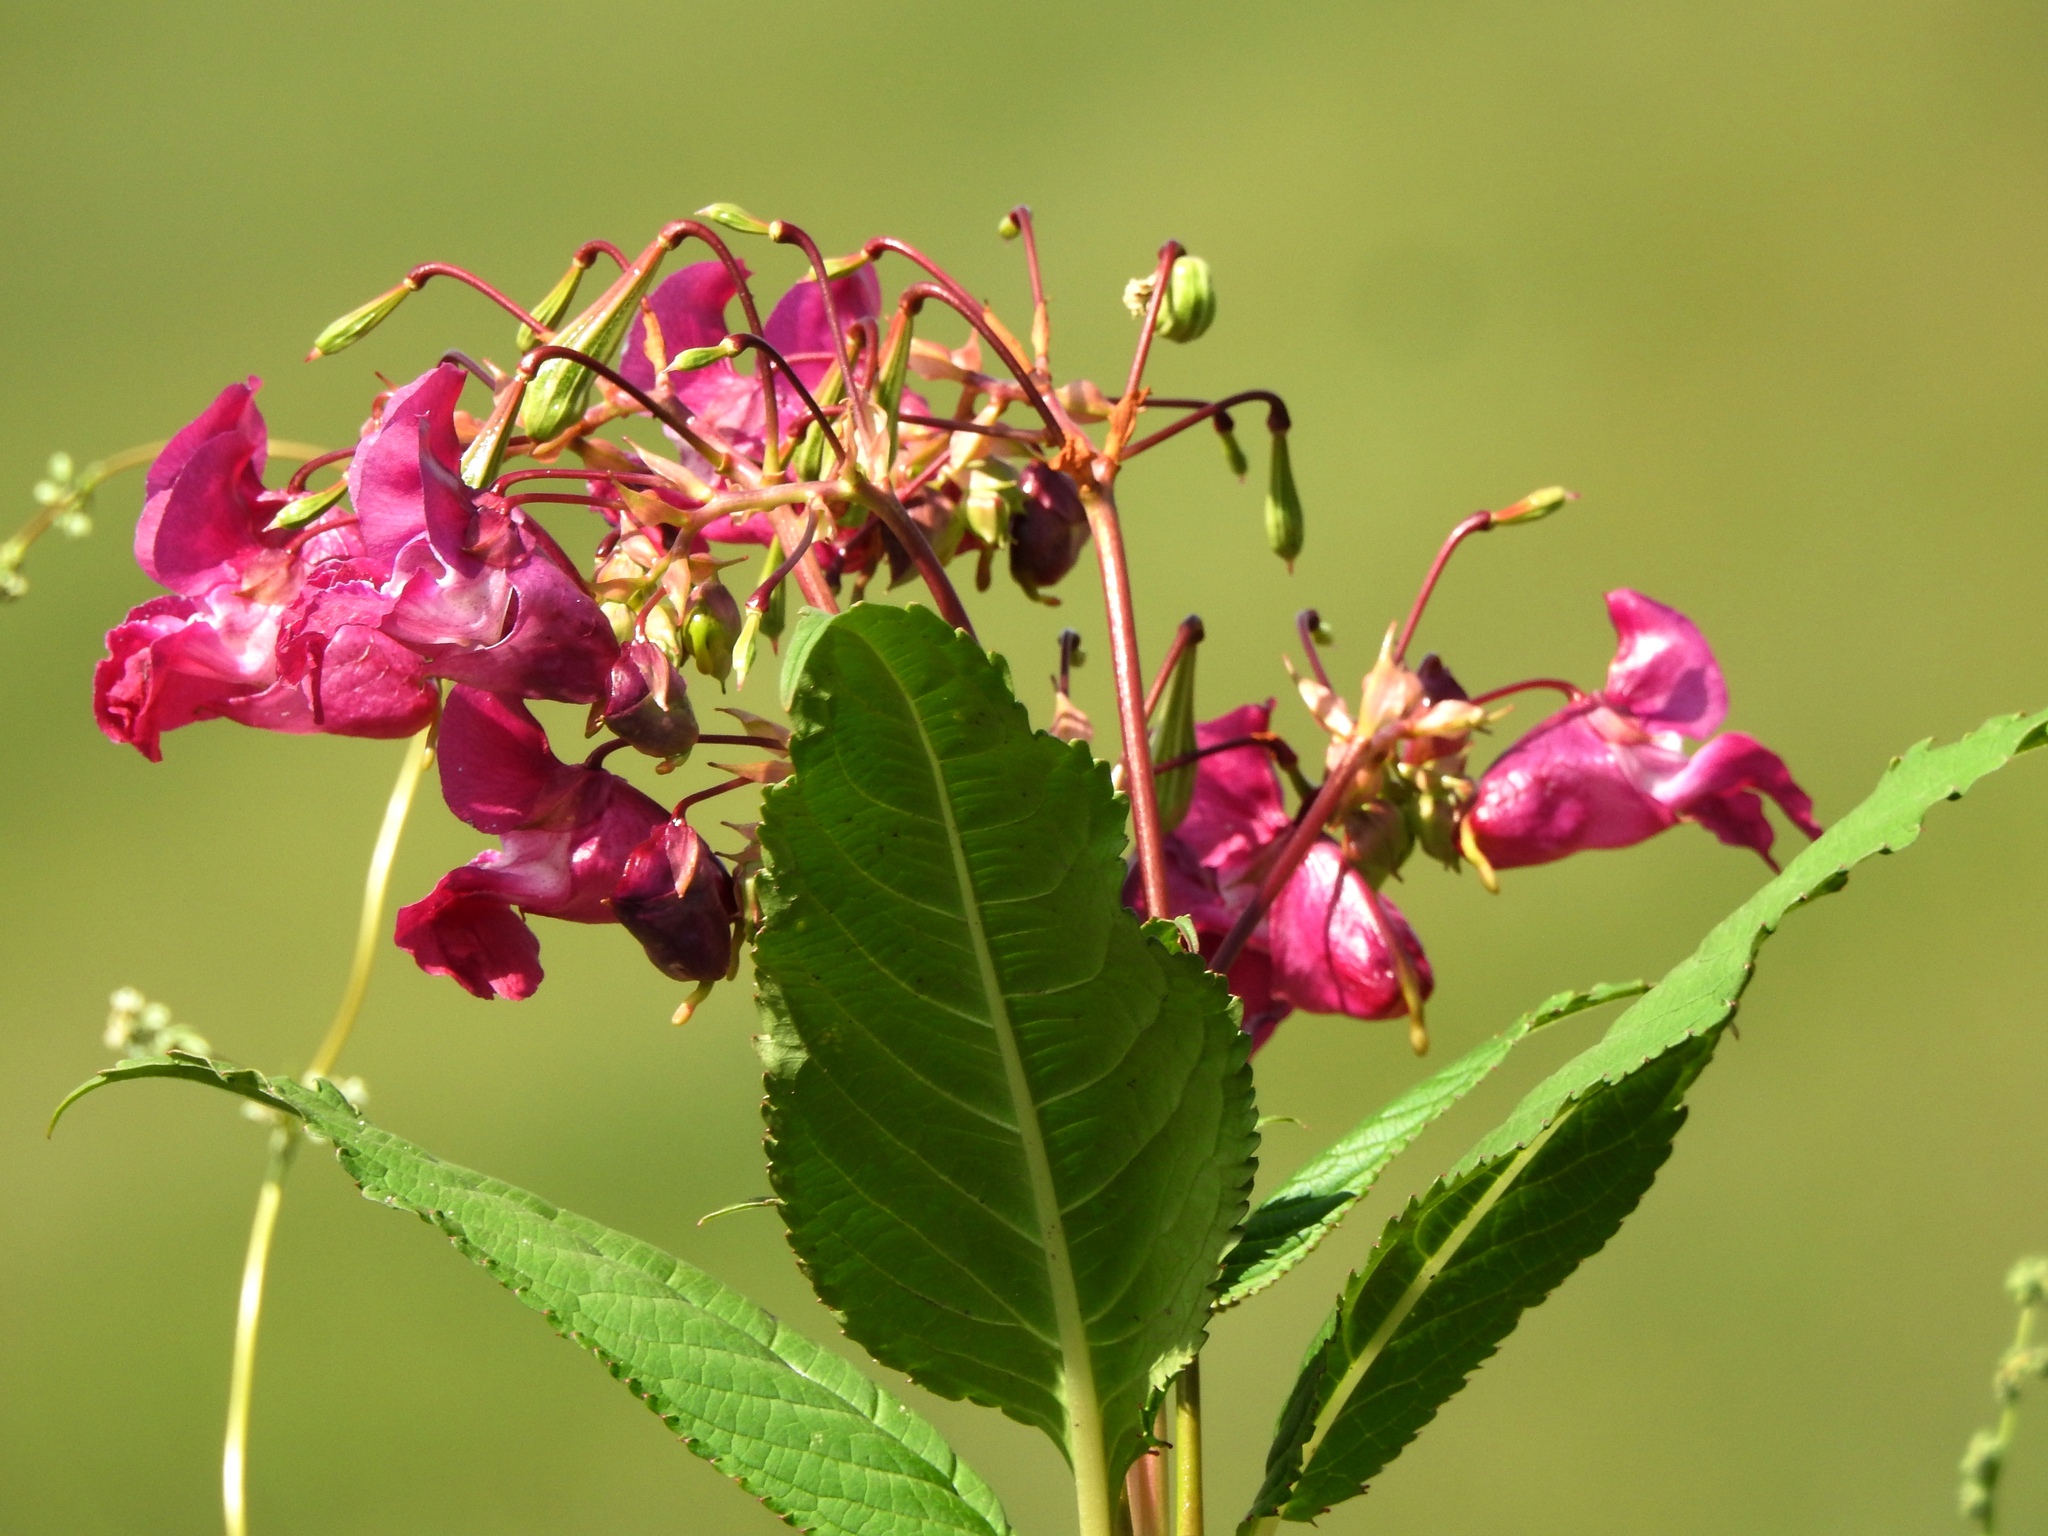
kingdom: Plantae
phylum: Tracheophyta
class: Magnoliopsida
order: Ericales
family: Balsaminaceae
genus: Impatiens
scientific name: Impatiens glandulifera
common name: Himalayan balsam
